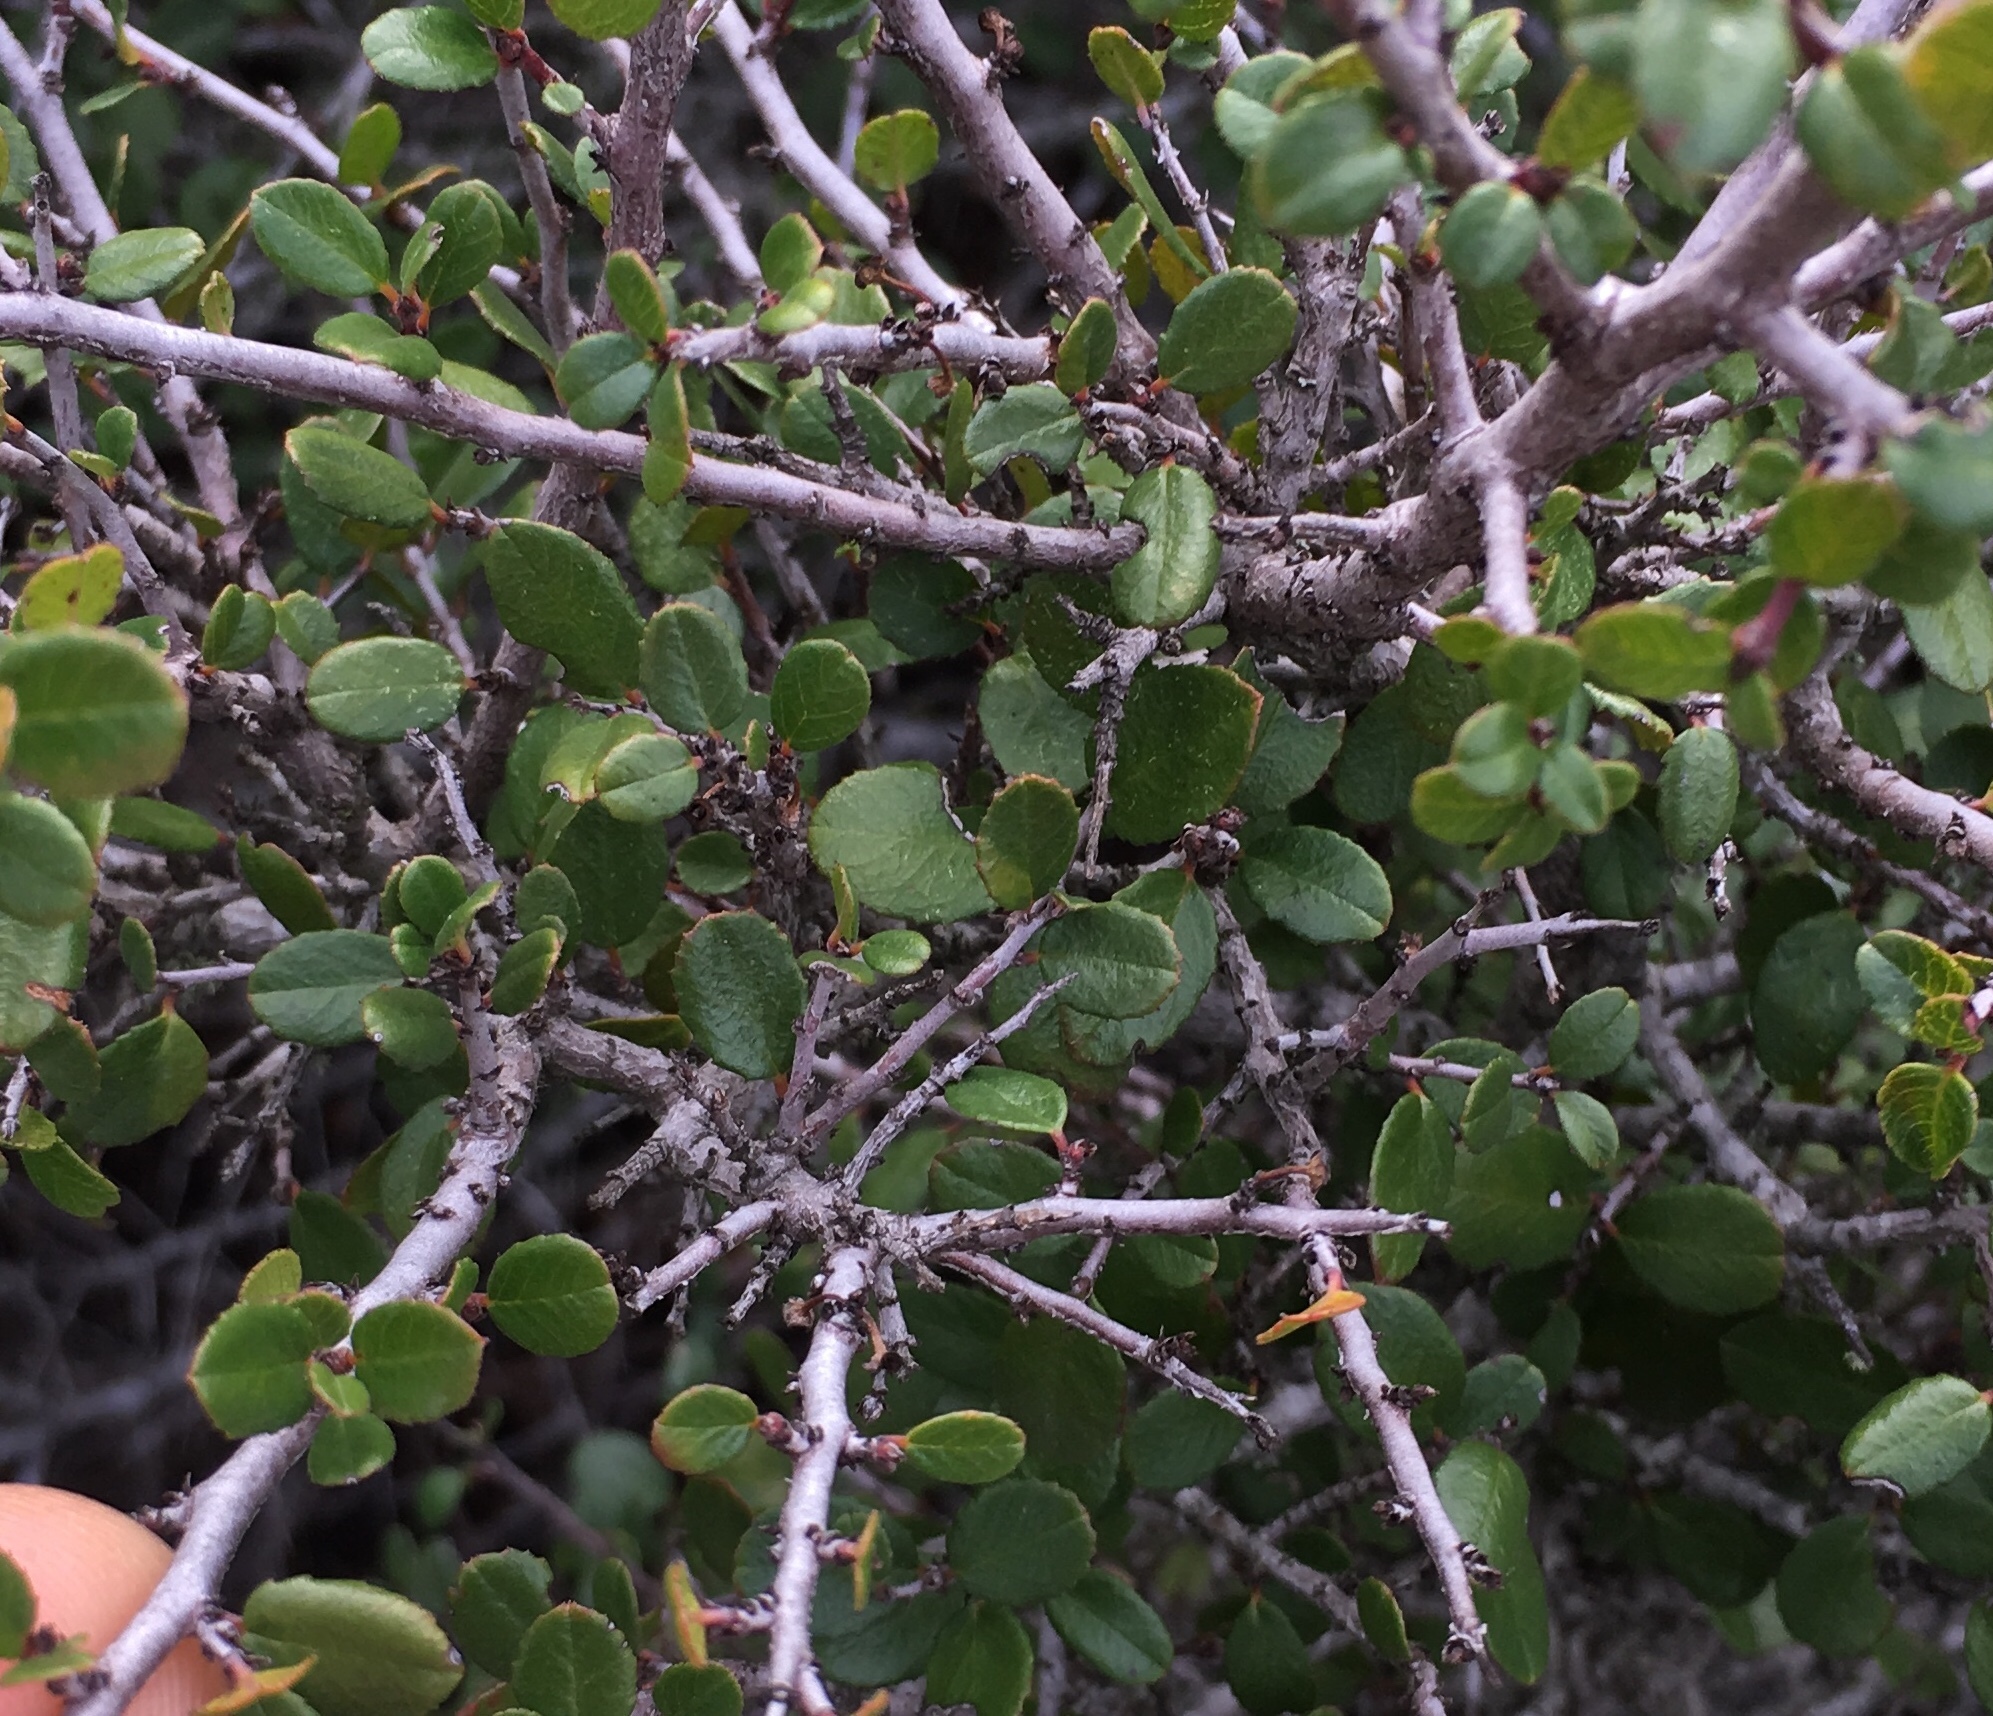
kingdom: Plantae
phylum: Tracheophyta
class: Magnoliopsida
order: Rosales
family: Rhamnaceae
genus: Endotropis
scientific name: Endotropis crocea
